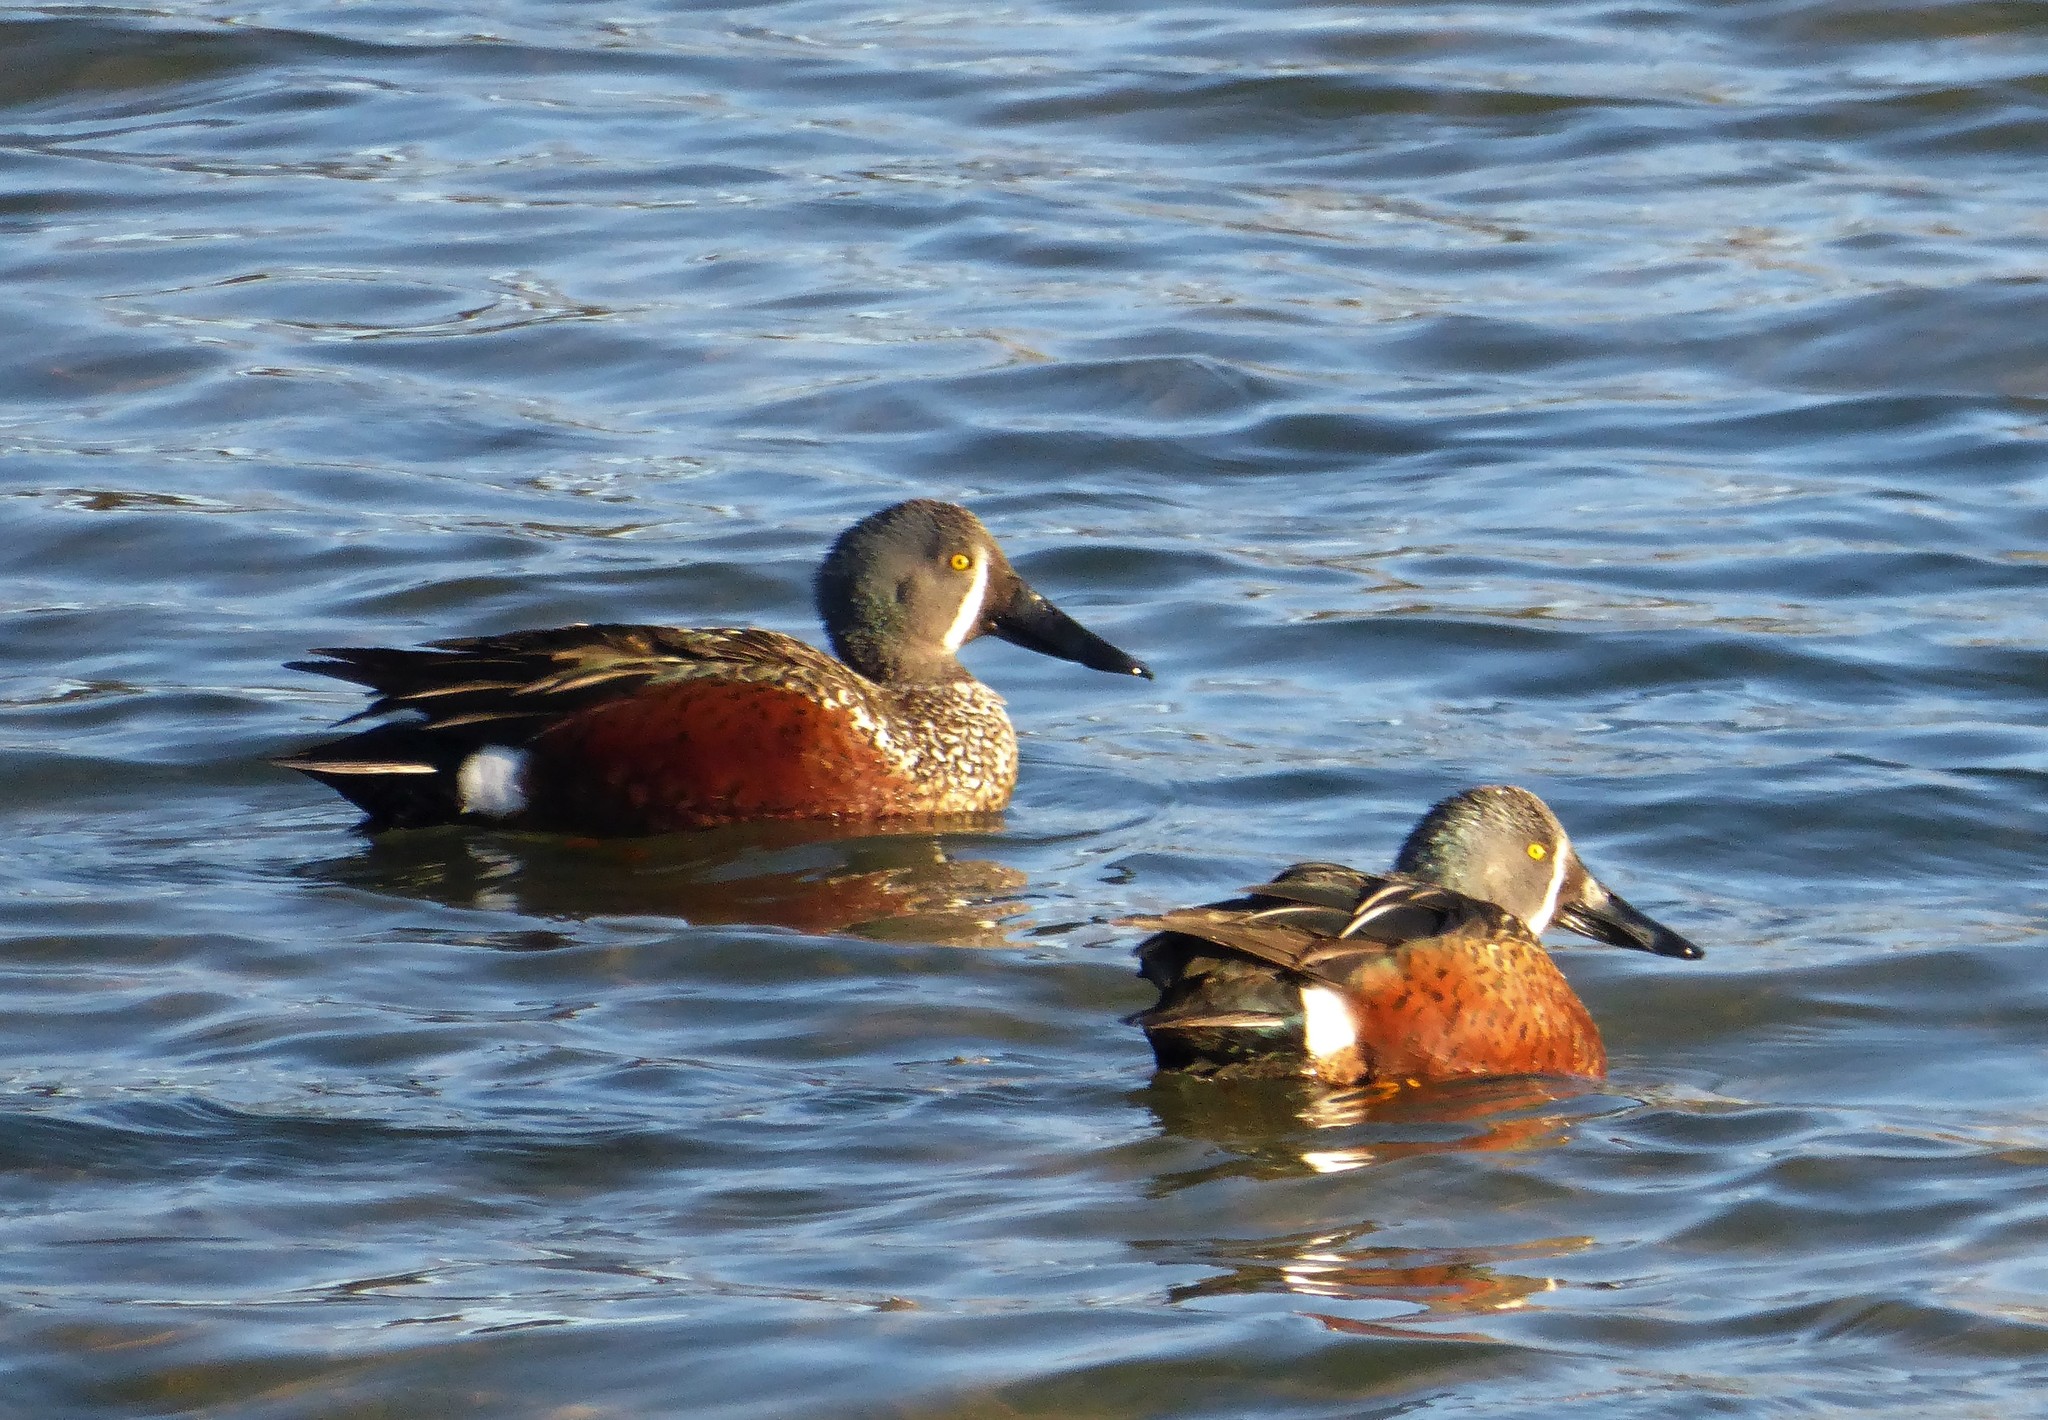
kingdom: Animalia
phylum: Chordata
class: Aves
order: Anseriformes
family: Anatidae
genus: Spatula
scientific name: Spatula rhynchotis
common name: Australian shoveler
